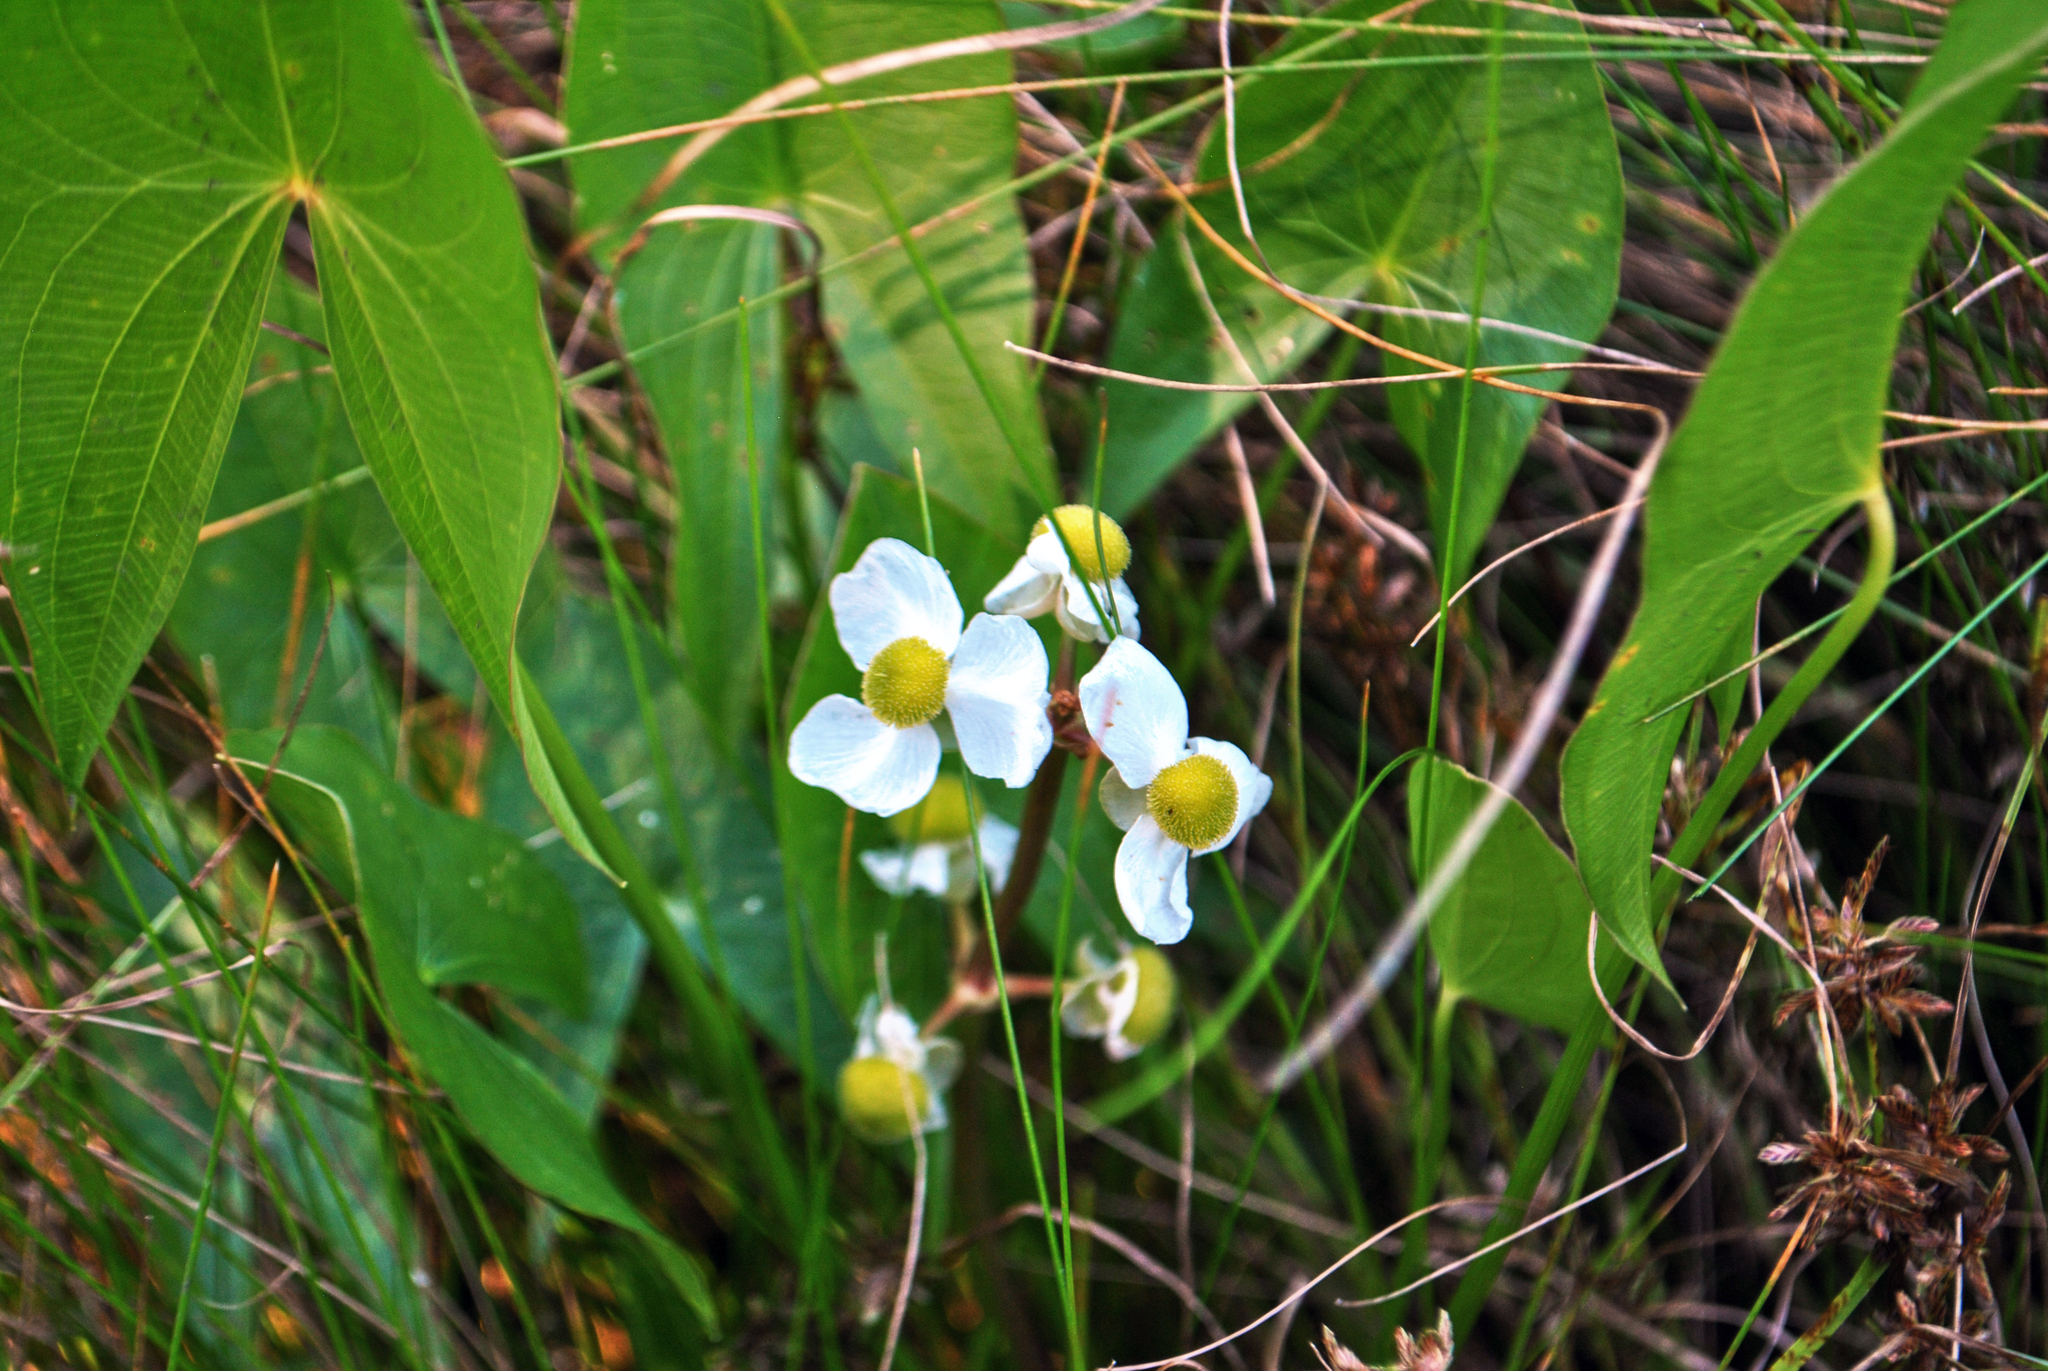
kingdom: Plantae
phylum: Tracheophyta
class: Liliopsida
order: Alismatales
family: Alismataceae
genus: Sagittaria
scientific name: Sagittaria latifolia
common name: Duck-potato
